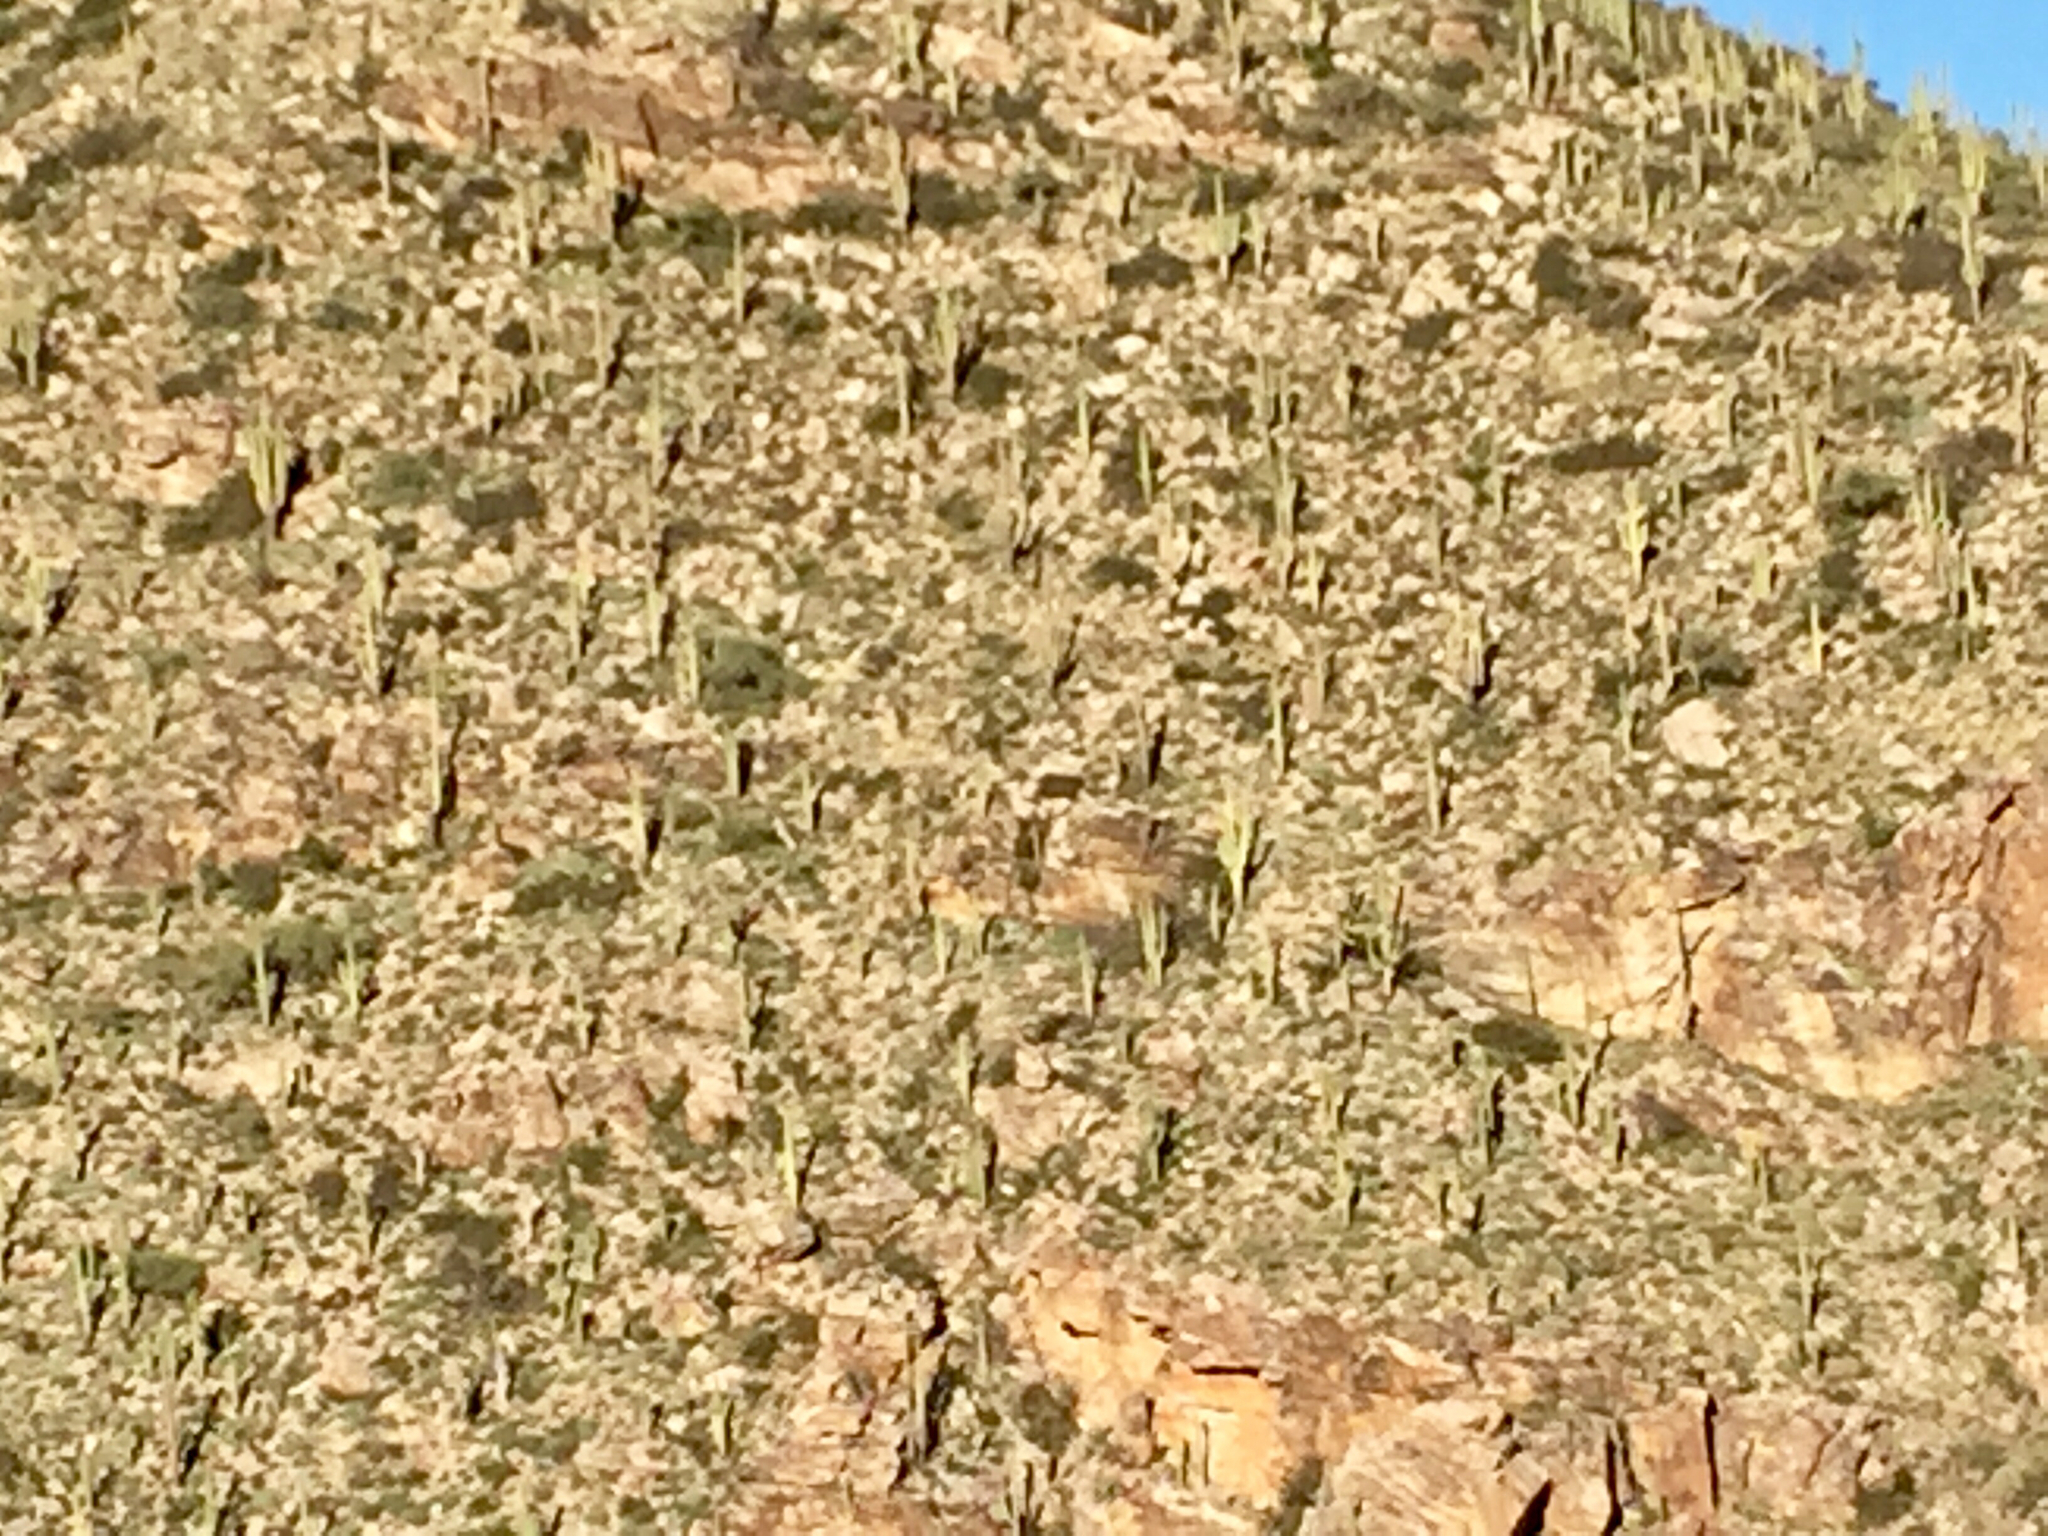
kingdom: Plantae
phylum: Tracheophyta
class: Magnoliopsida
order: Caryophyllales
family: Cactaceae
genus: Carnegiea
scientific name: Carnegiea gigantea
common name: Saguaro
